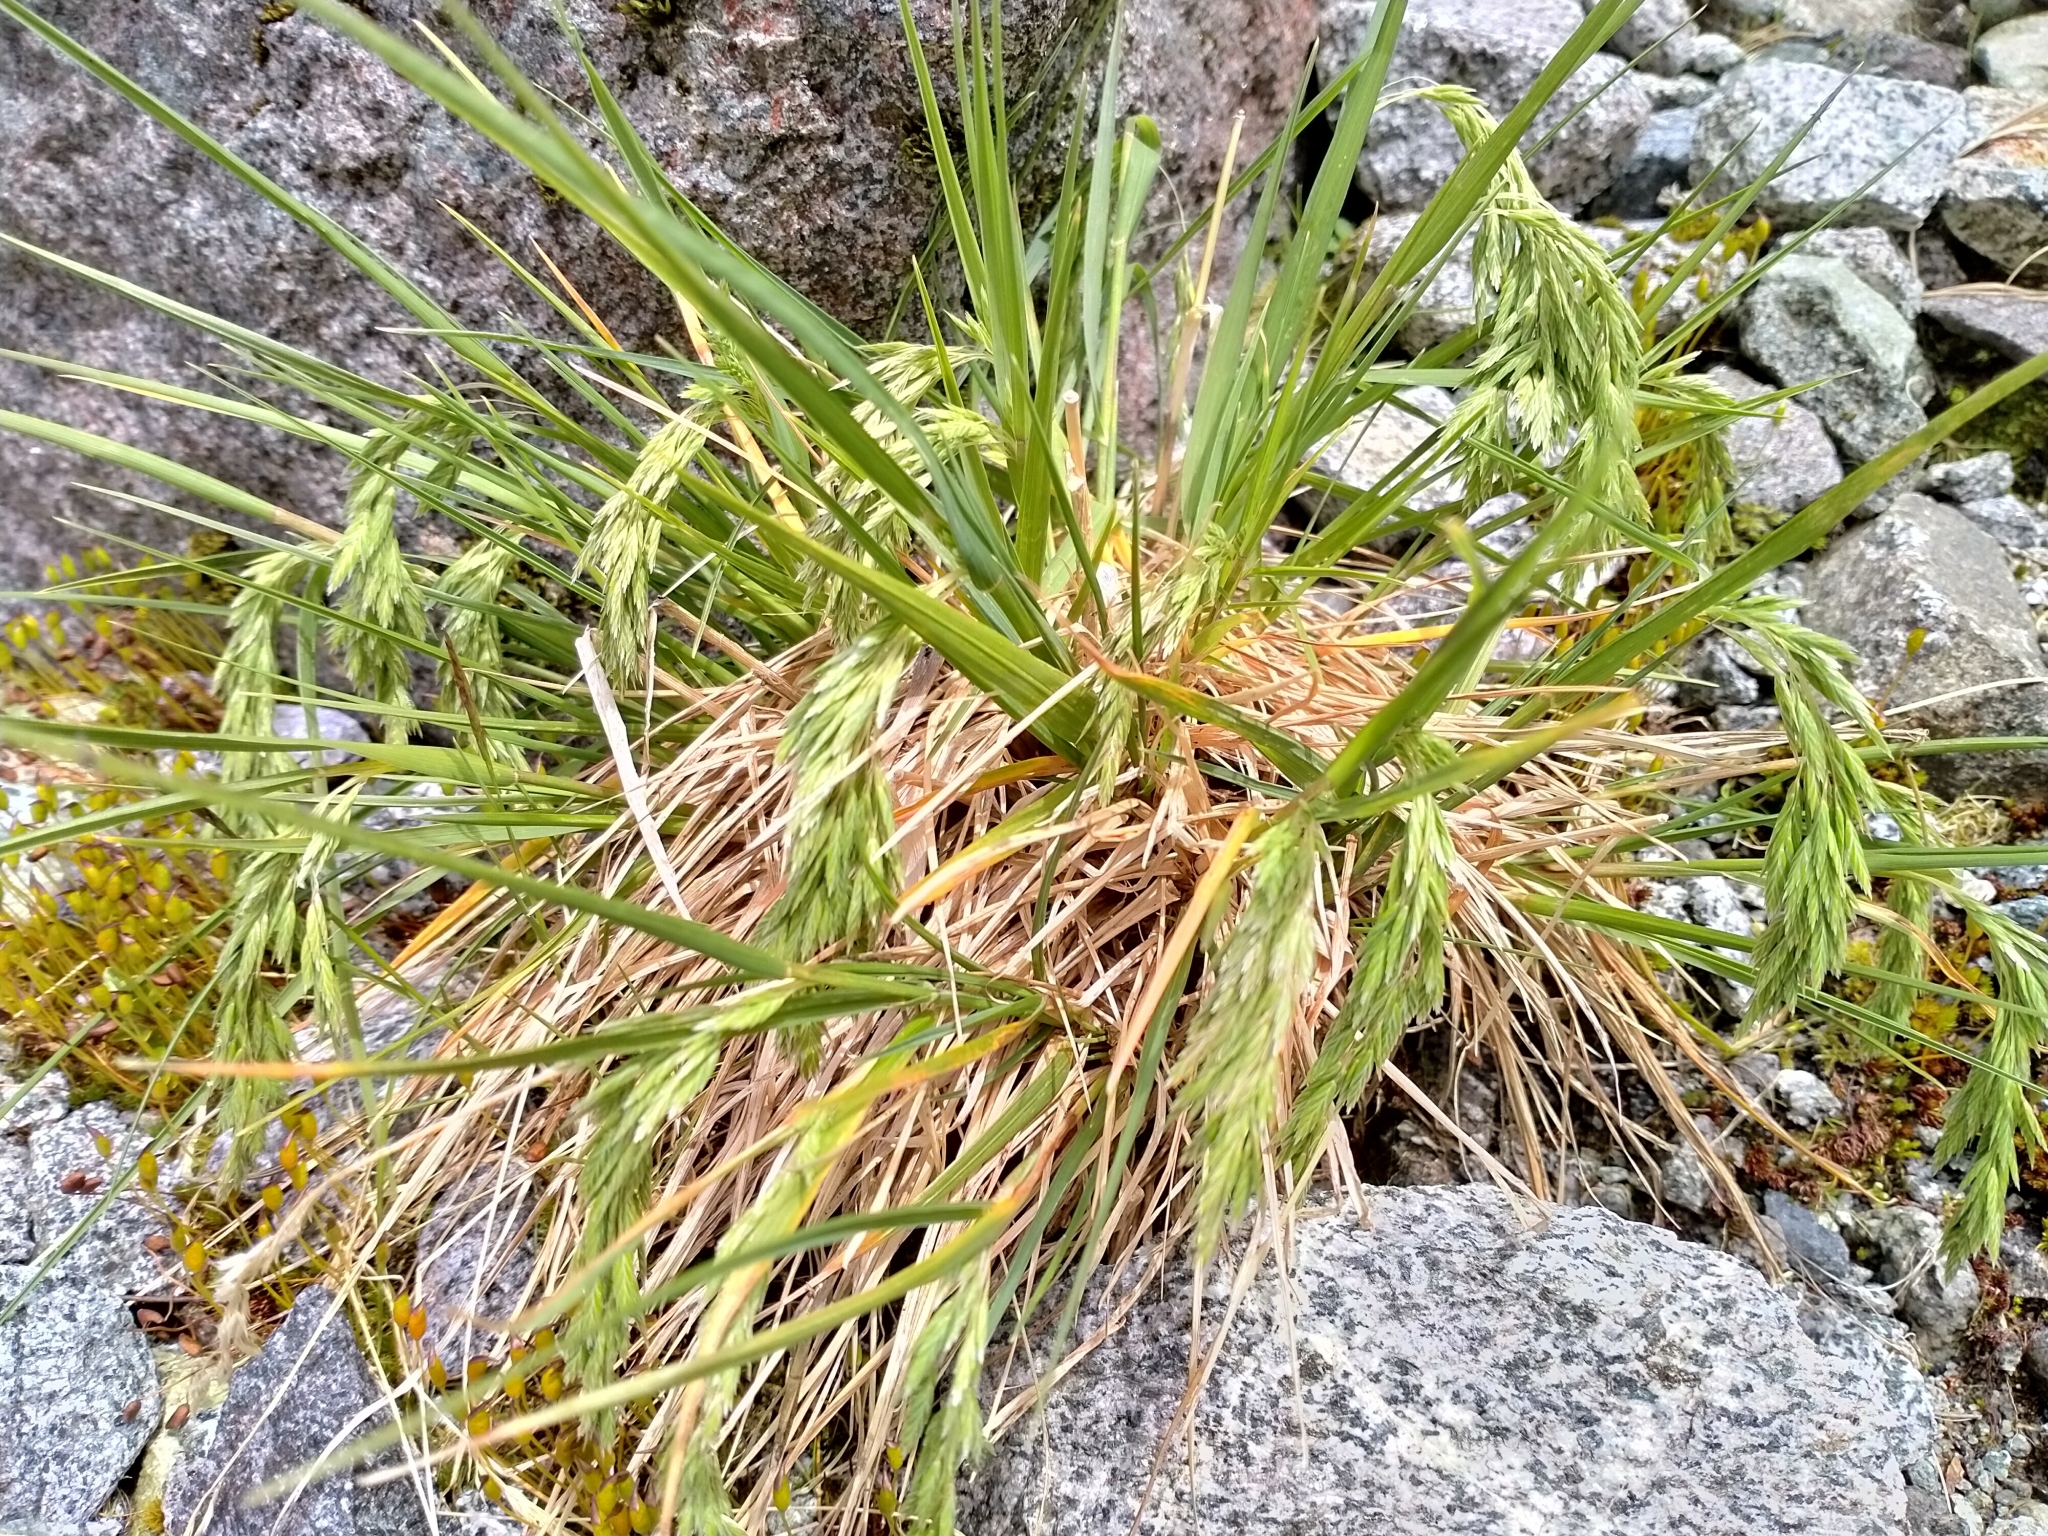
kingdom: Plantae
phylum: Tracheophyta
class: Liliopsida
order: Poales
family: Poaceae
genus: Poa
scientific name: Poa novae-zelandiae
